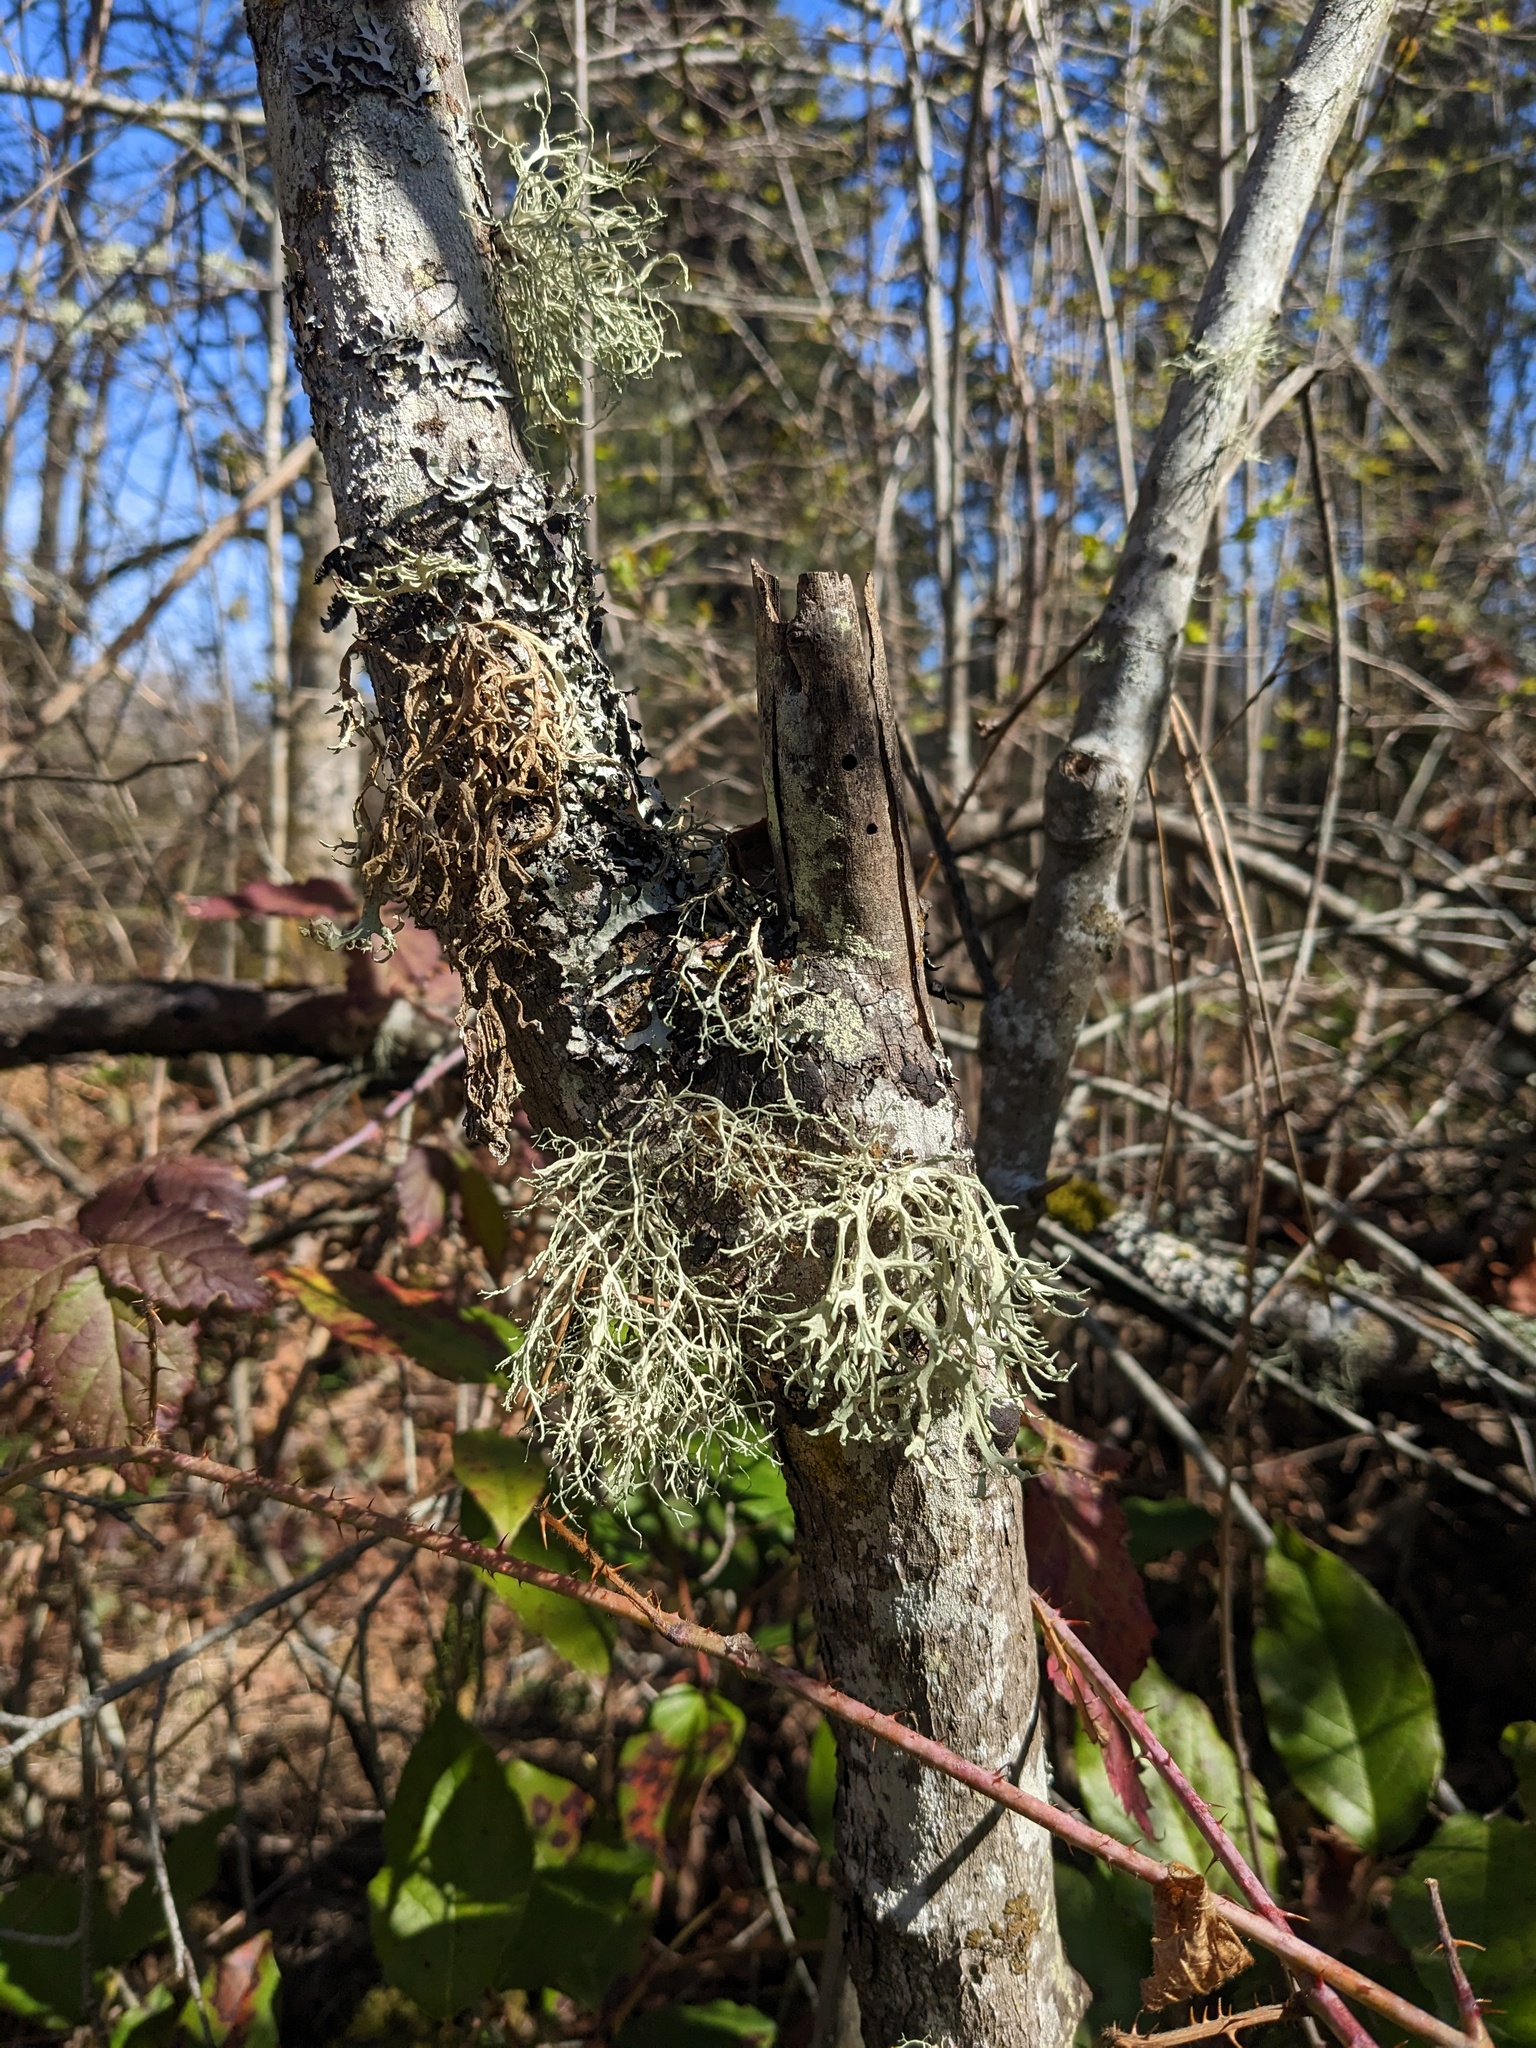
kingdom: Fungi
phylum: Ascomycota
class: Lecanoromycetes
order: Lecanorales
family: Parmeliaceae
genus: Evernia
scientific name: Evernia prunastri
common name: Oak moss
